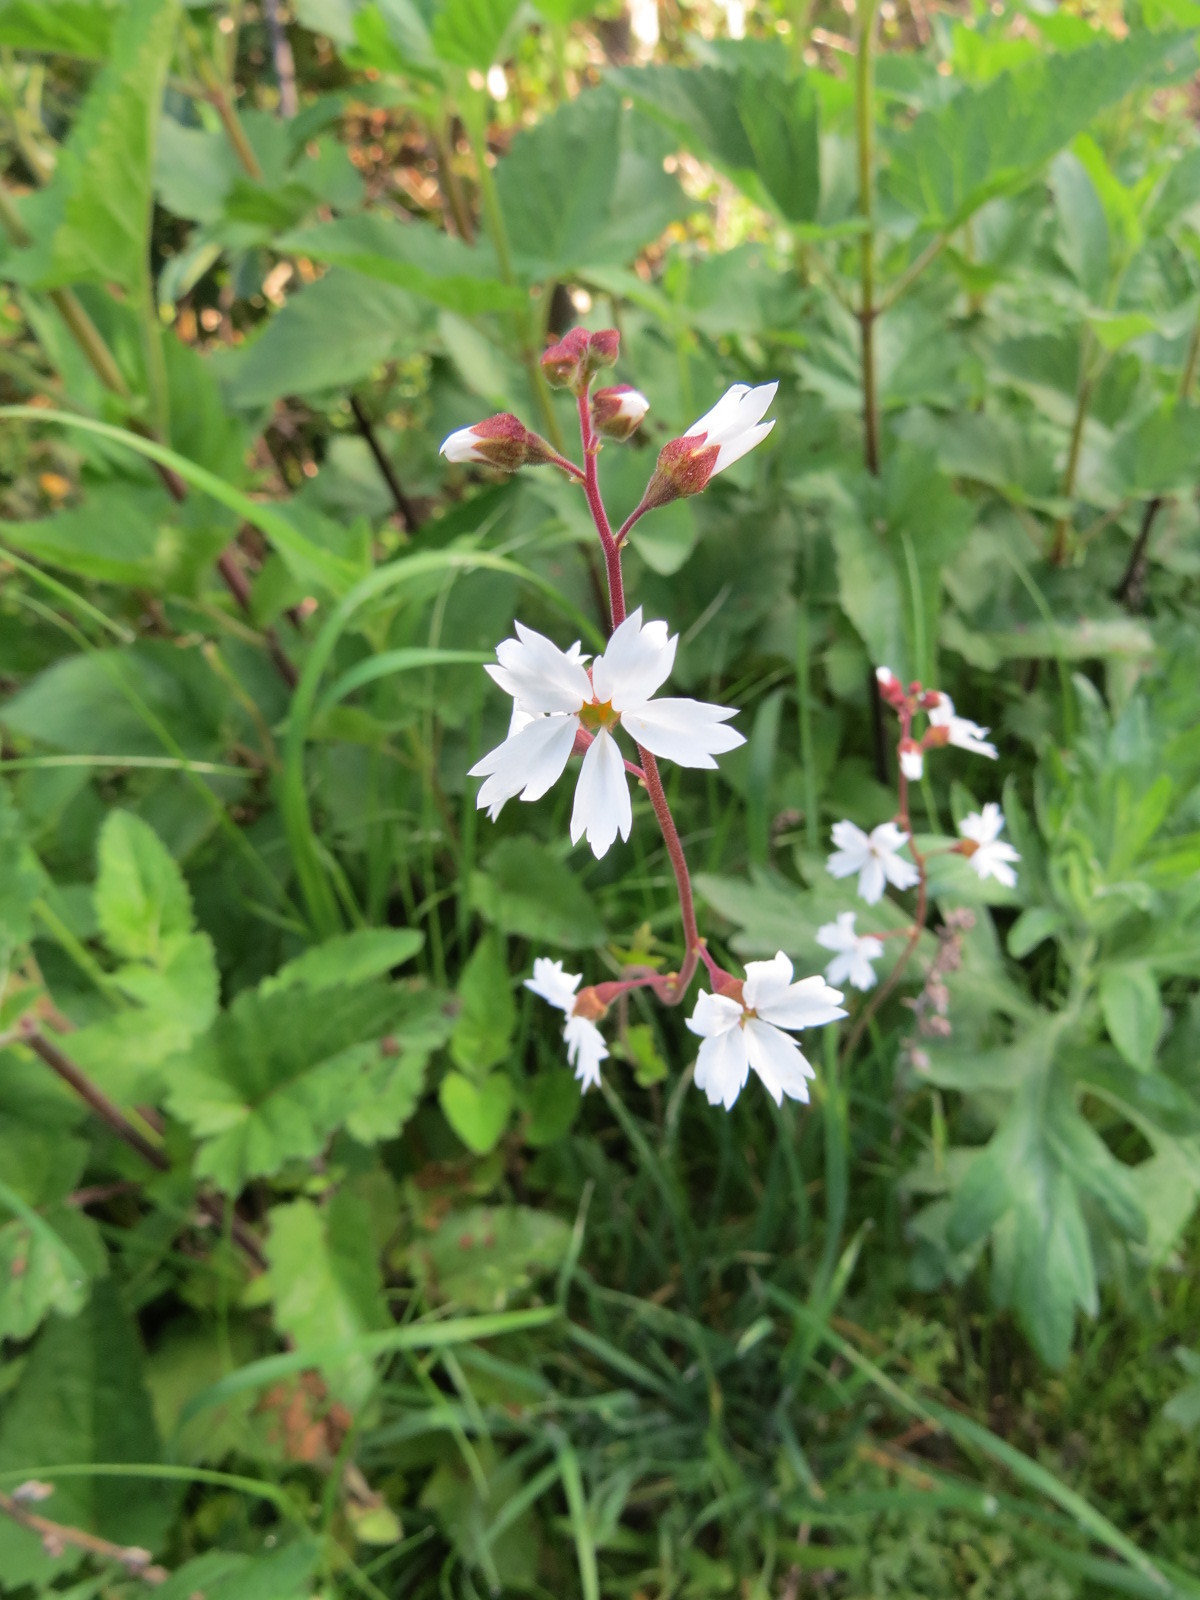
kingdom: Plantae
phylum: Tracheophyta
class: Magnoliopsida
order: Saxifragales
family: Saxifragaceae
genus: Lithophragma
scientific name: Lithophragma affine
